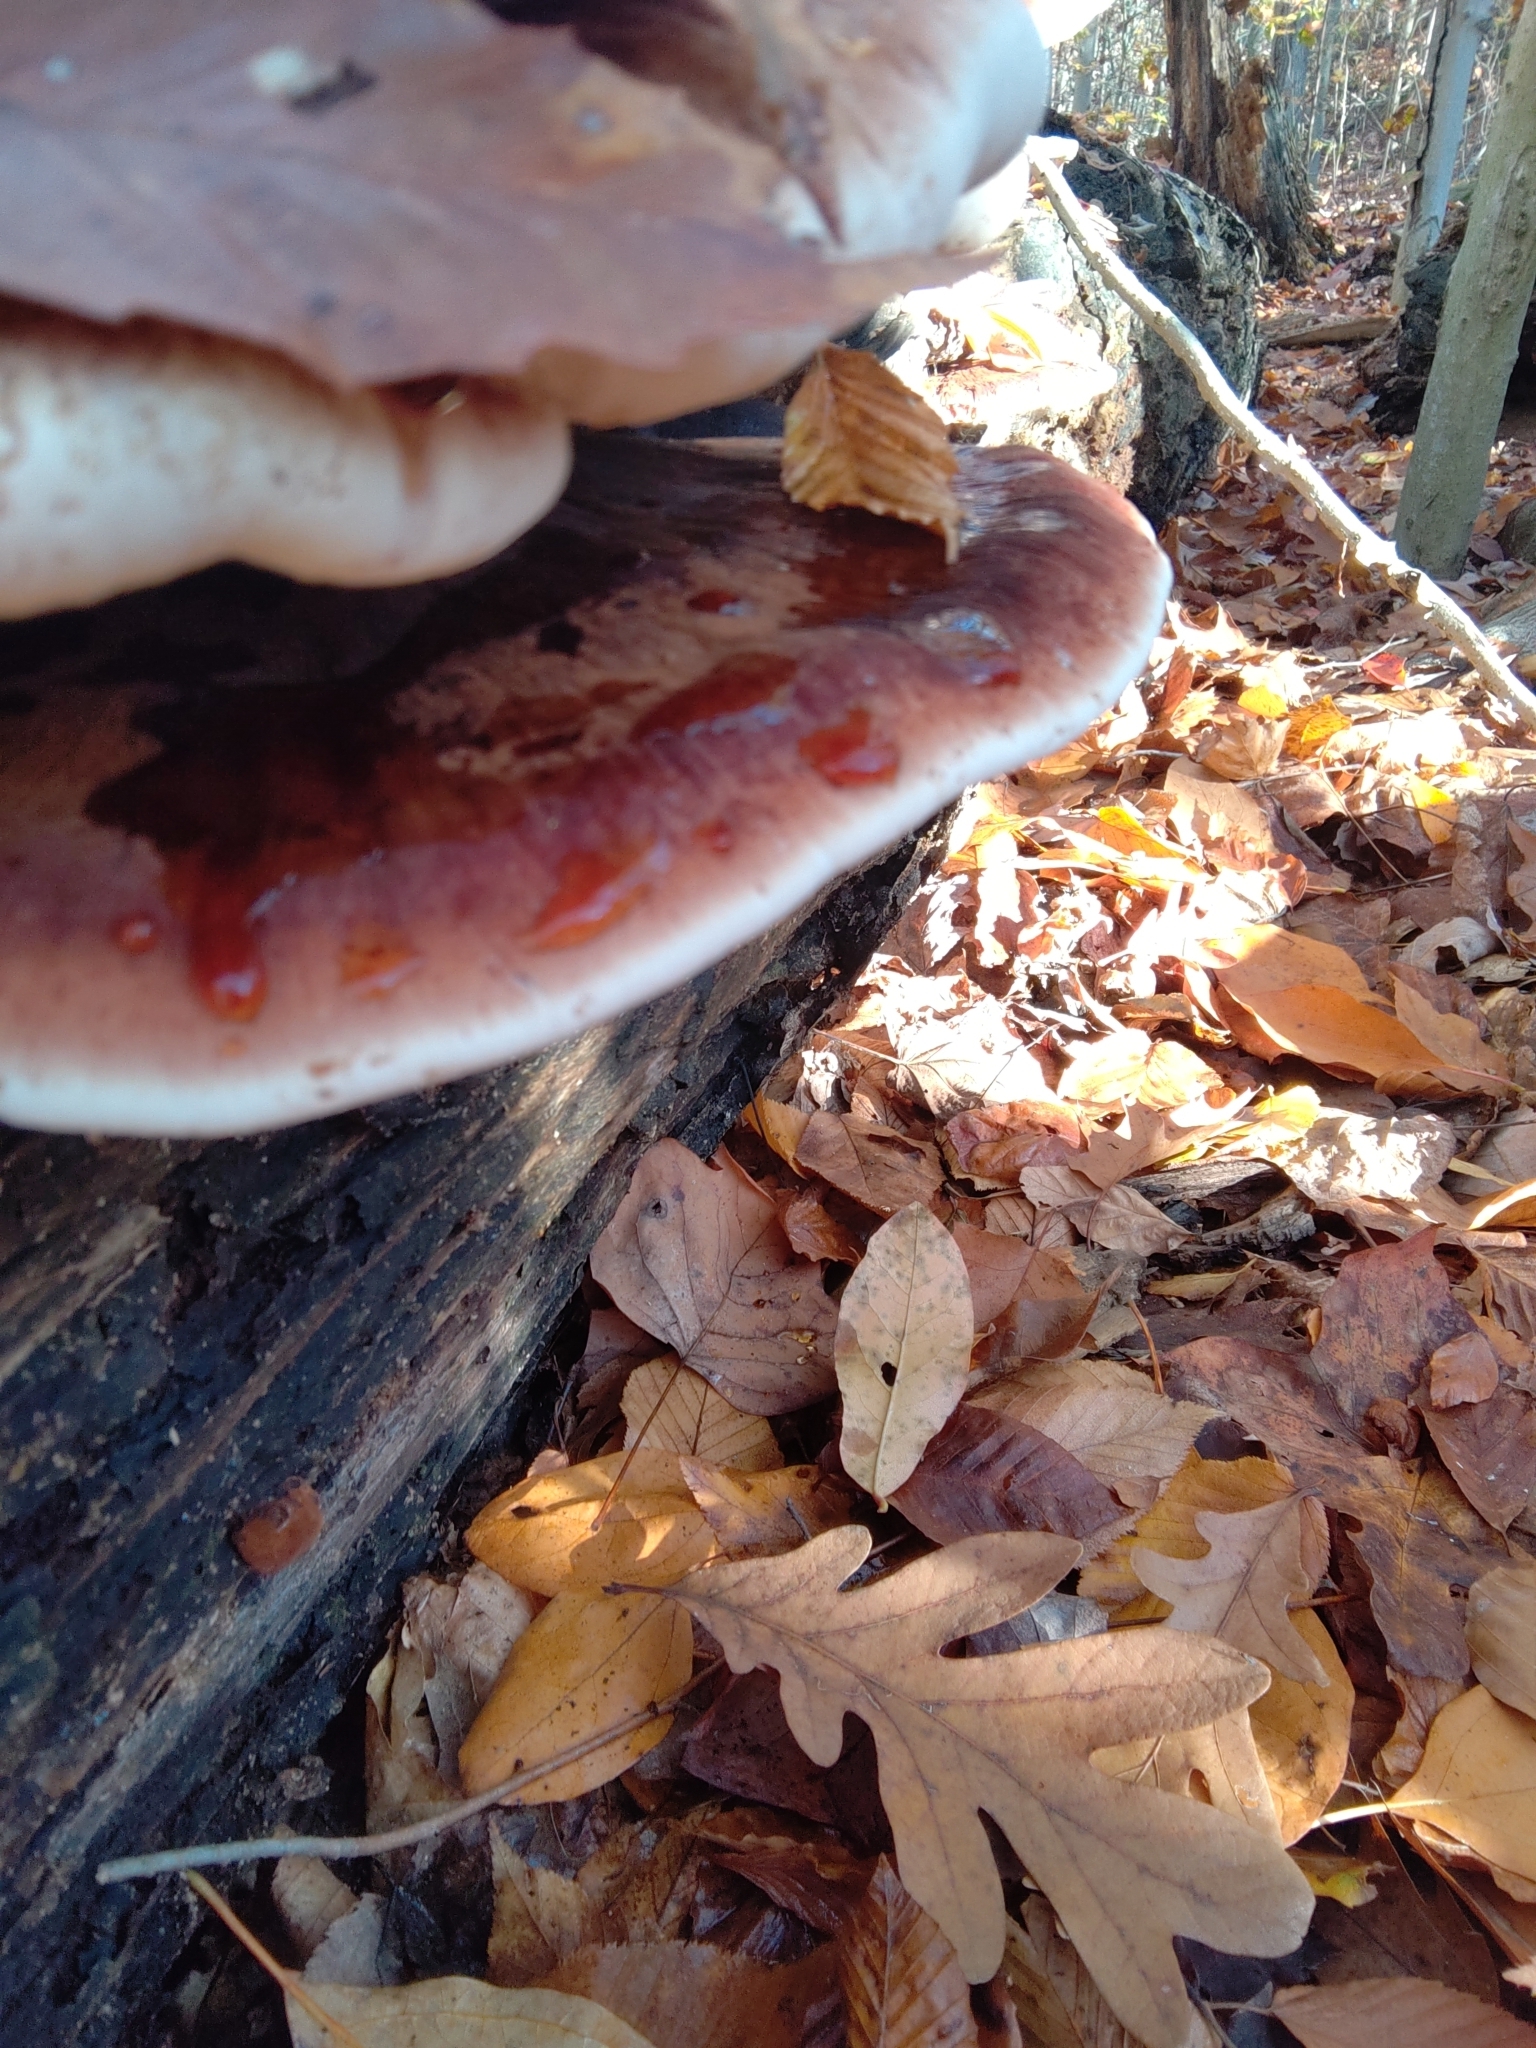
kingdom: Fungi
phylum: Basidiomycota
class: Agaricomycetes
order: Polyporales
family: Ischnodermataceae
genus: Ischnoderma
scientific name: Ischnoderma resinosum
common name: Resinous polypore
